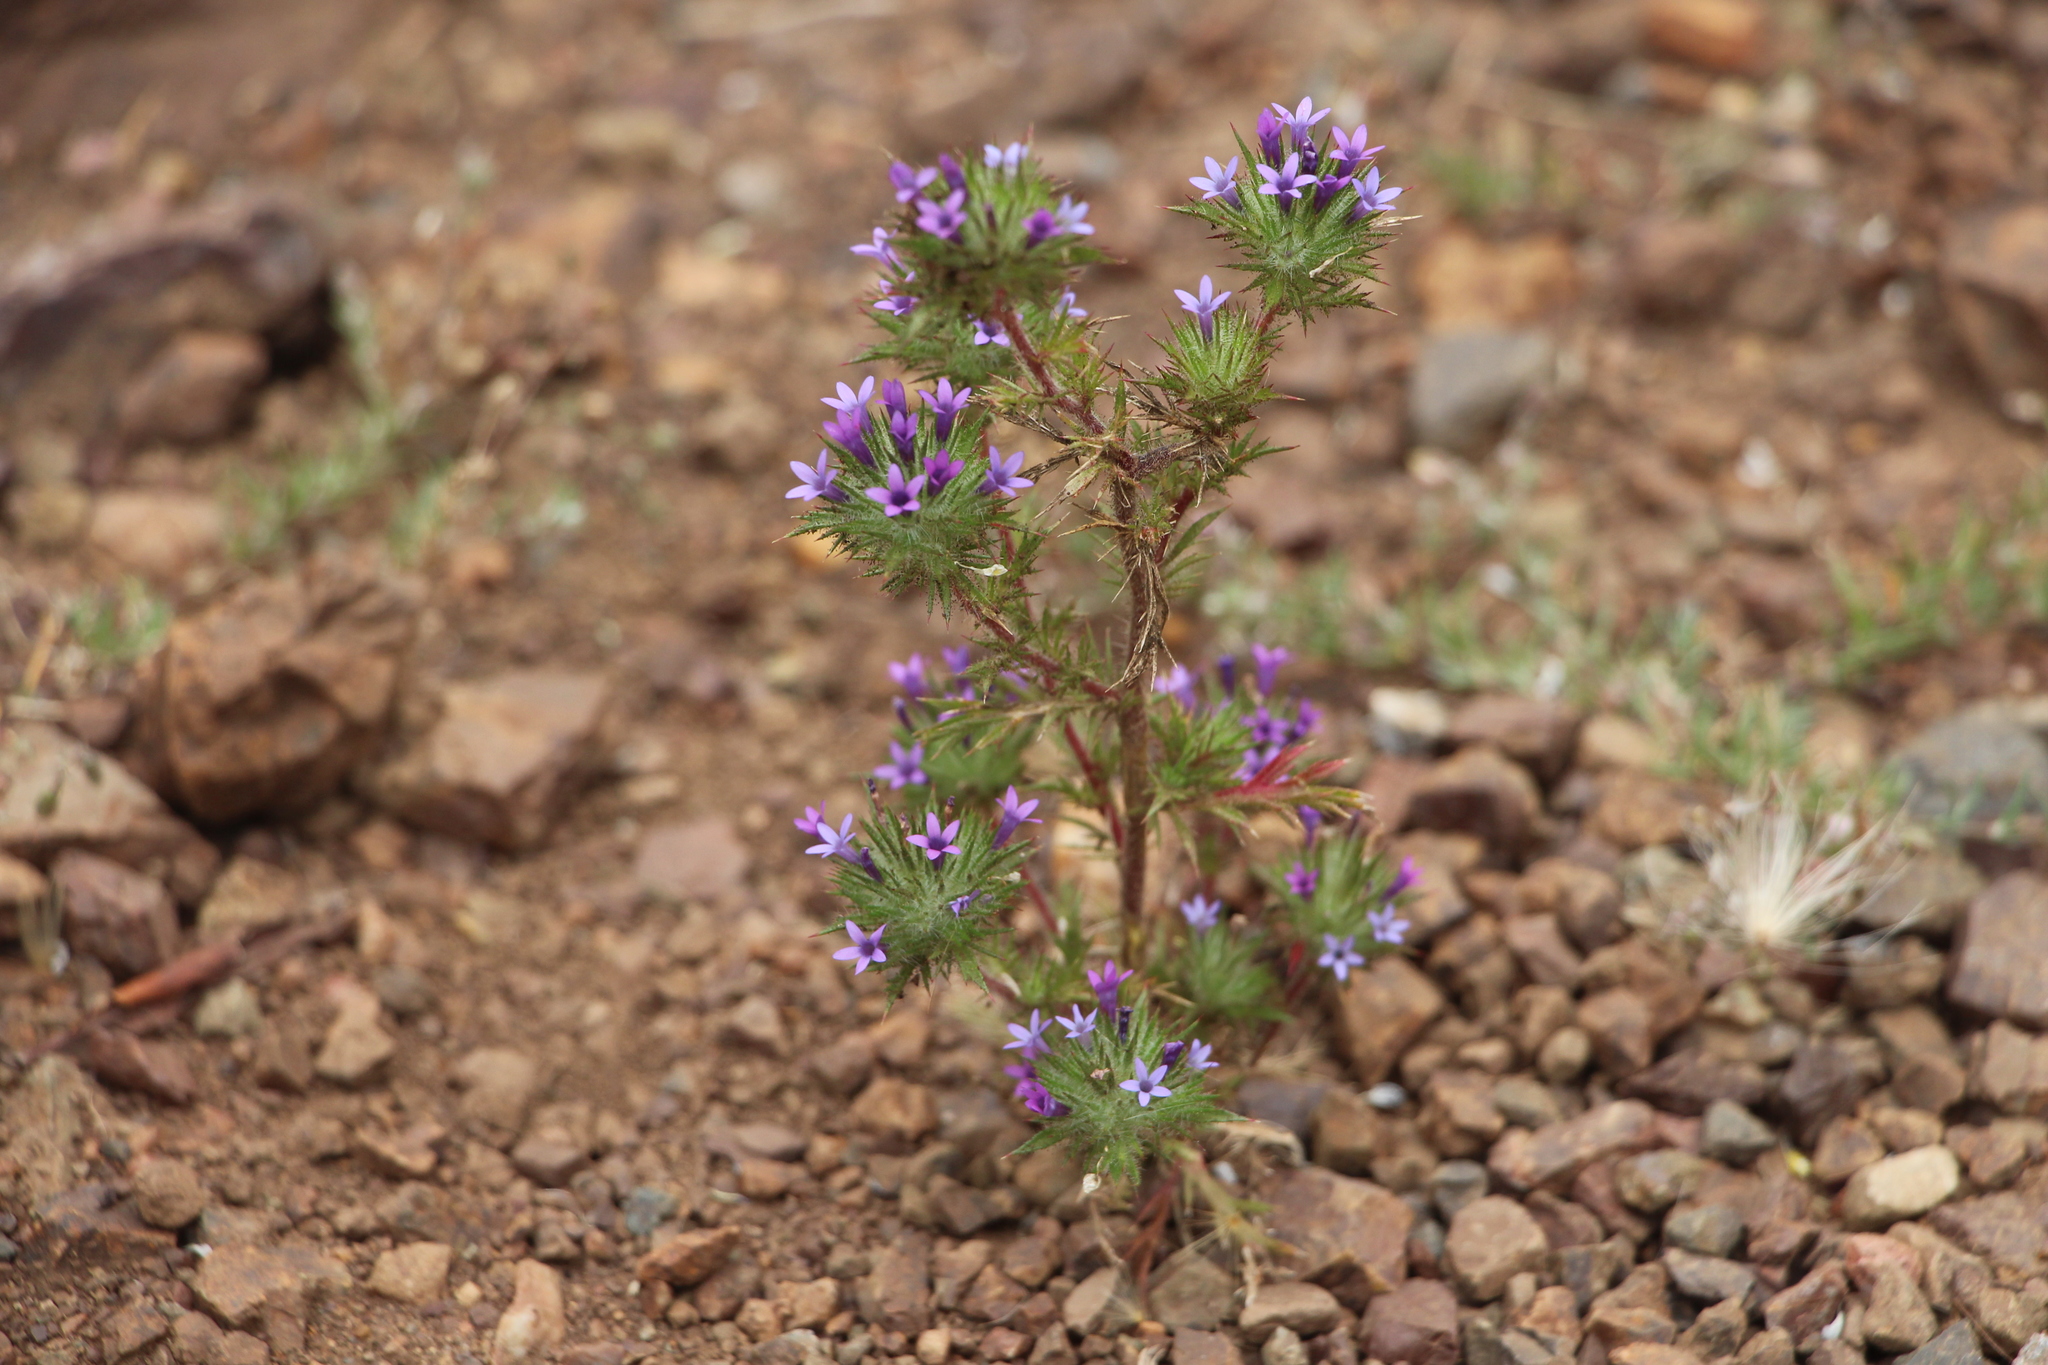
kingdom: Plantae
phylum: Tracheophyta
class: Magnoliopsida
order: Ericales
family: Polemoniaceae
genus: Navarretia
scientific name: Navarretia squarrosa
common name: Skunkweed
